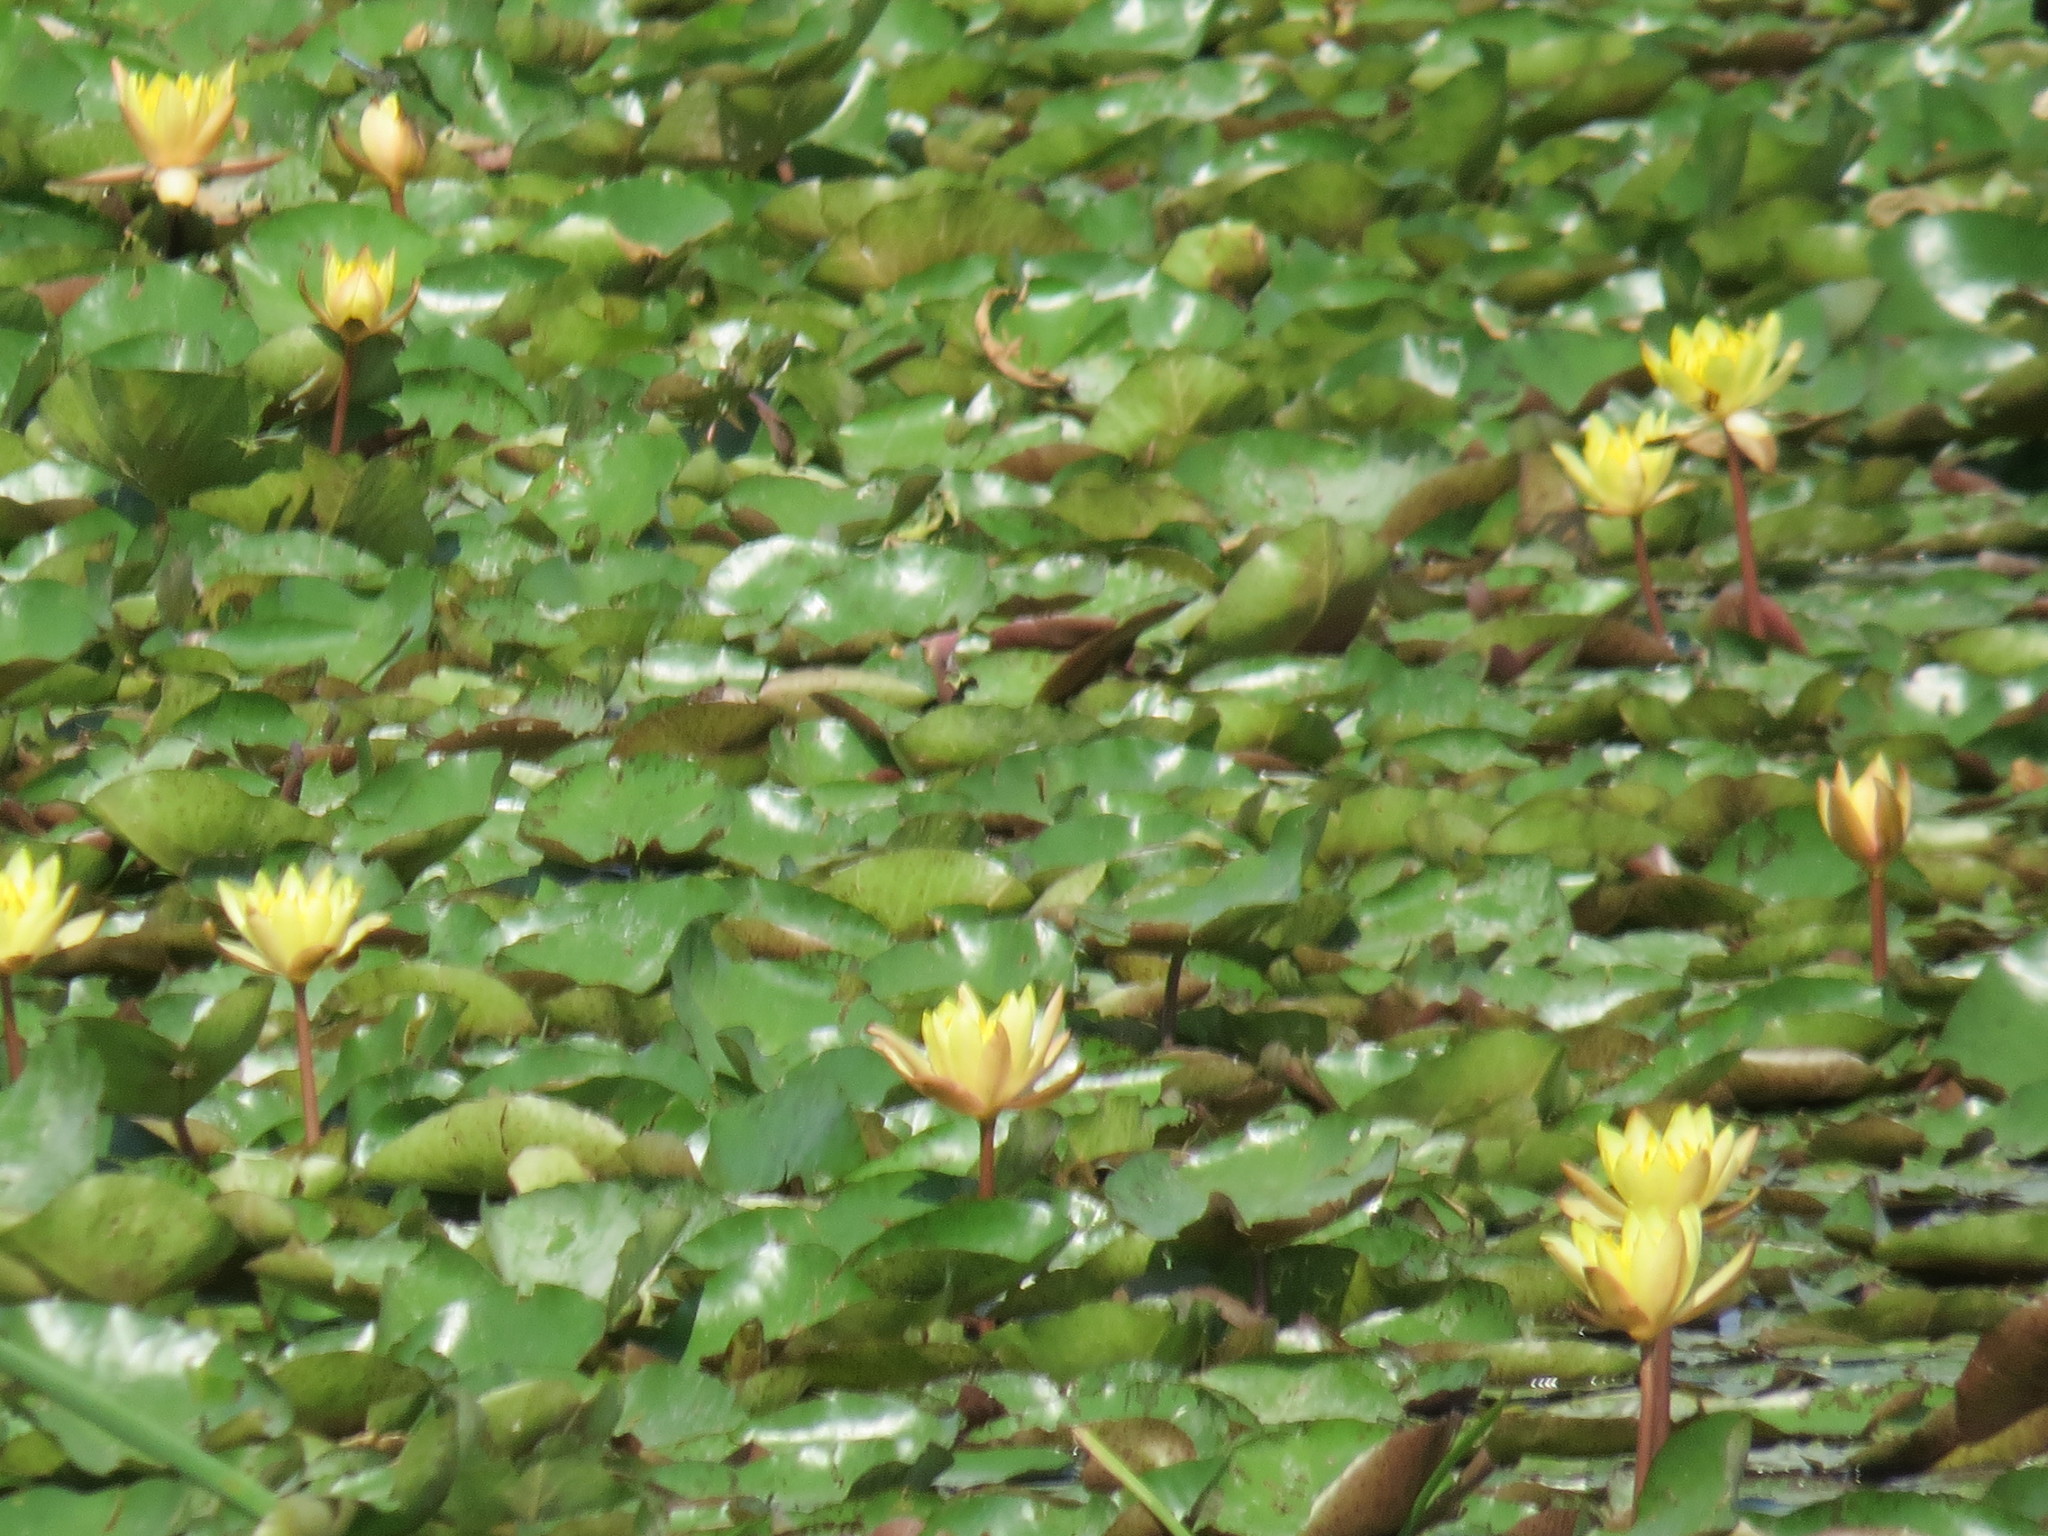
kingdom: Plantae
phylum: Tracheophyta
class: Magnoliopsida
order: Nymphaeales
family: Nymphaeaceae
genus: Nymphaea
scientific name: Nymphaea mexicana
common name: Banana water-lily
